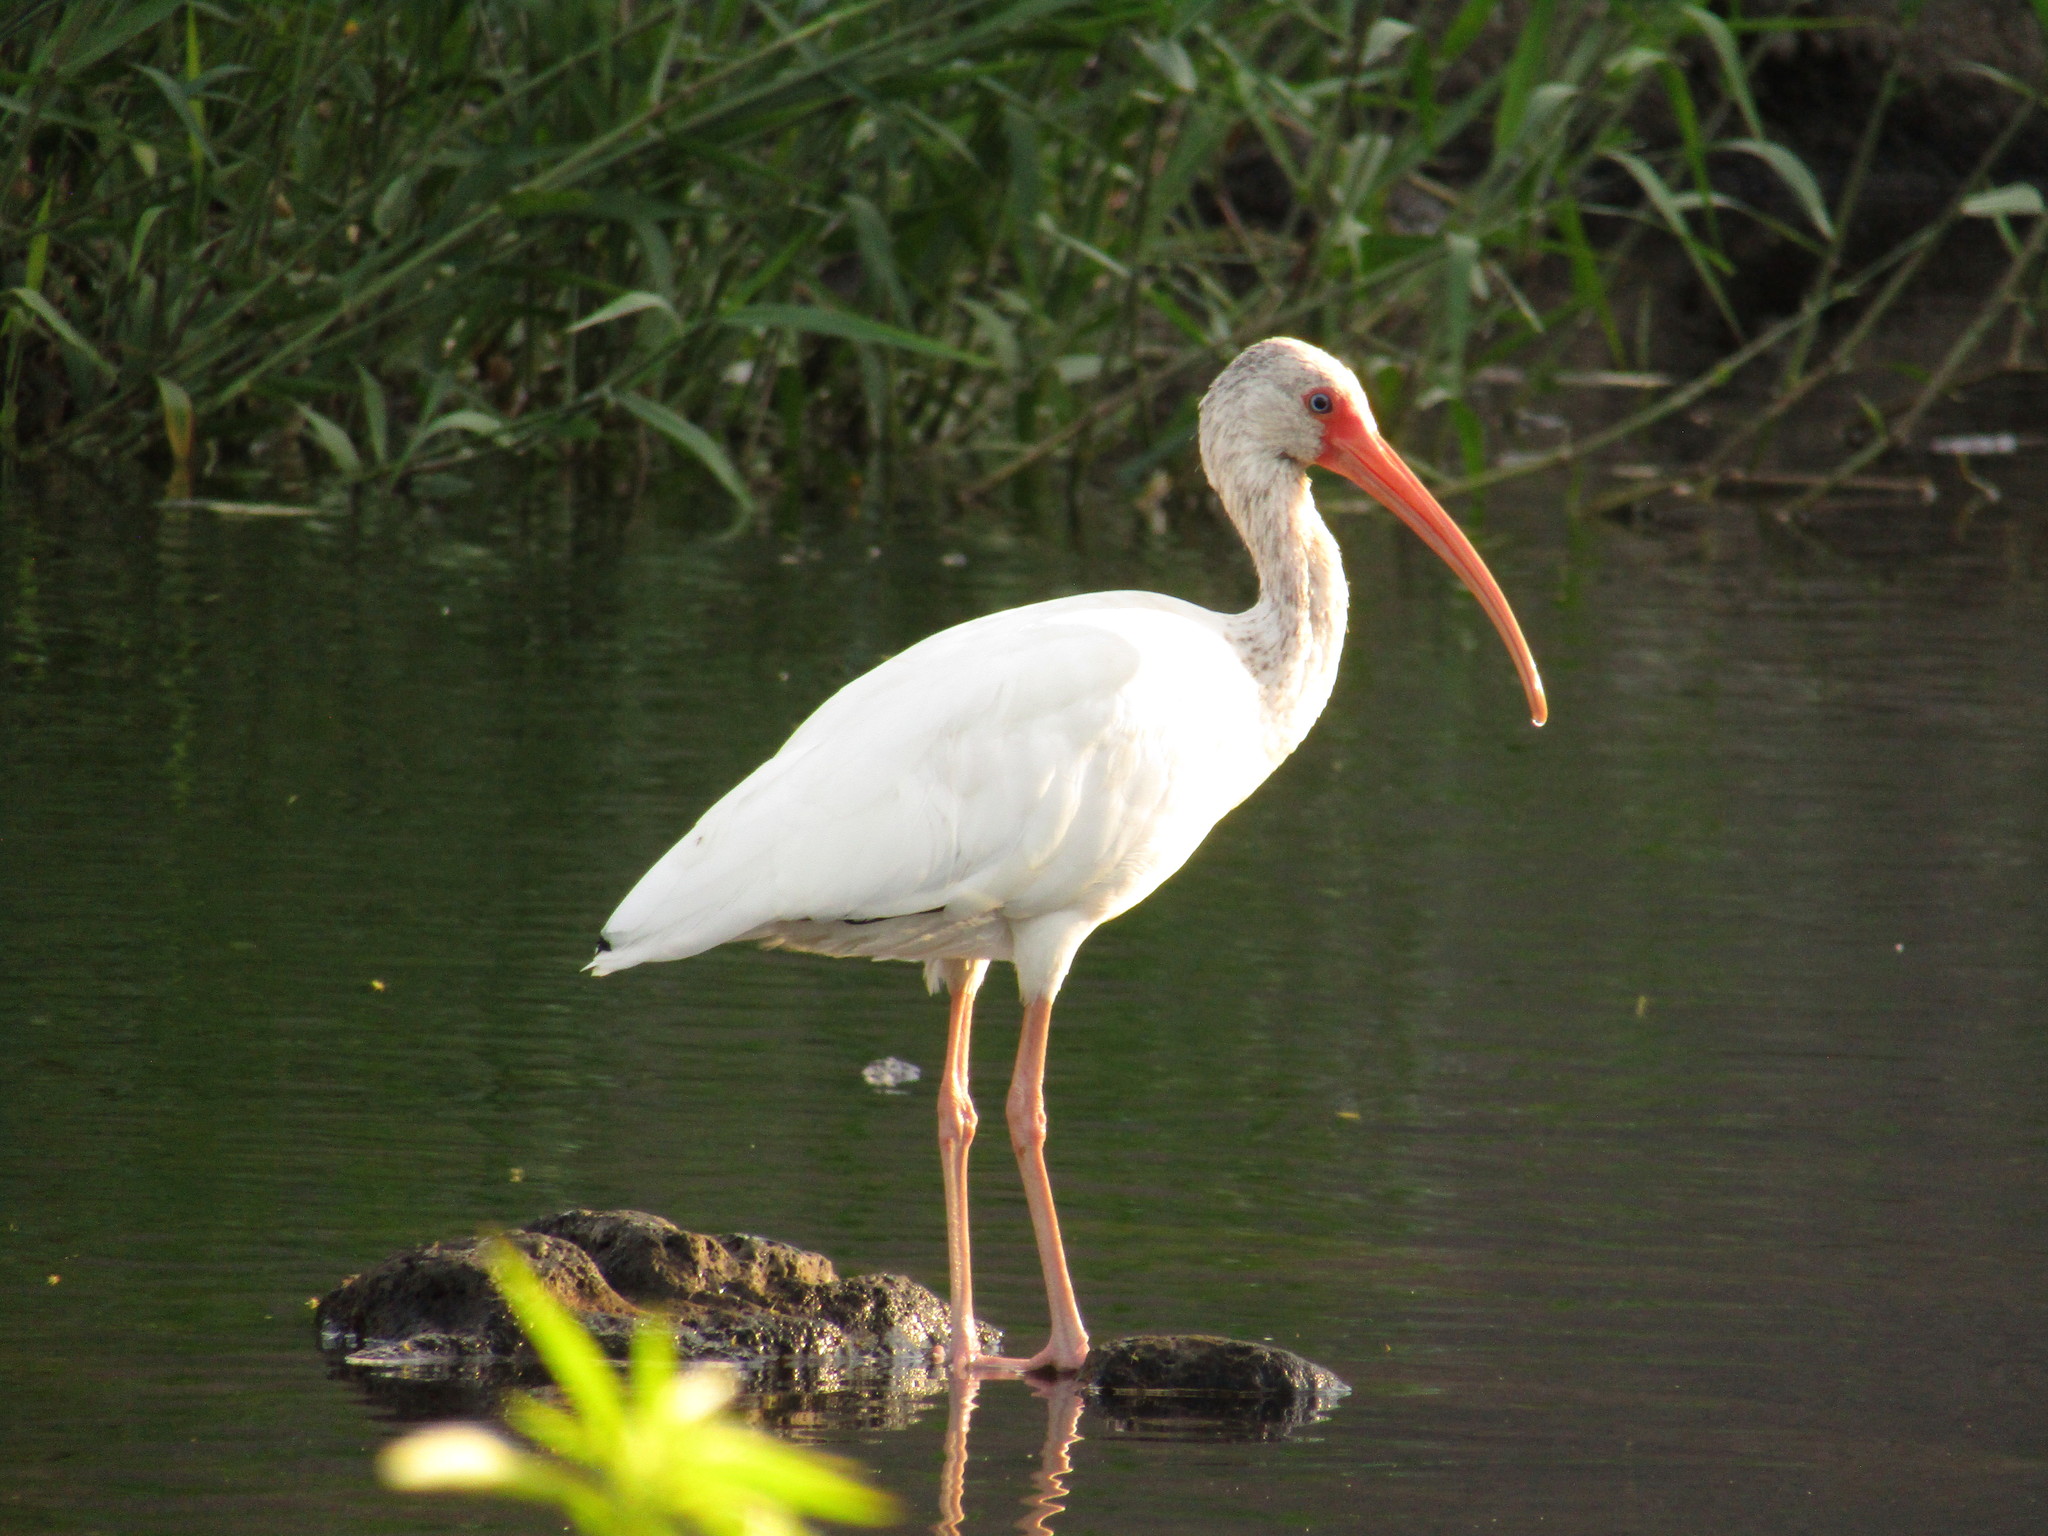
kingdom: Animalia
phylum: Chordata
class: Aves
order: Pelecaniformes
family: Threskiornithidae
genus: Eudocimus
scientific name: Eudocimus albus
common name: White ibis
